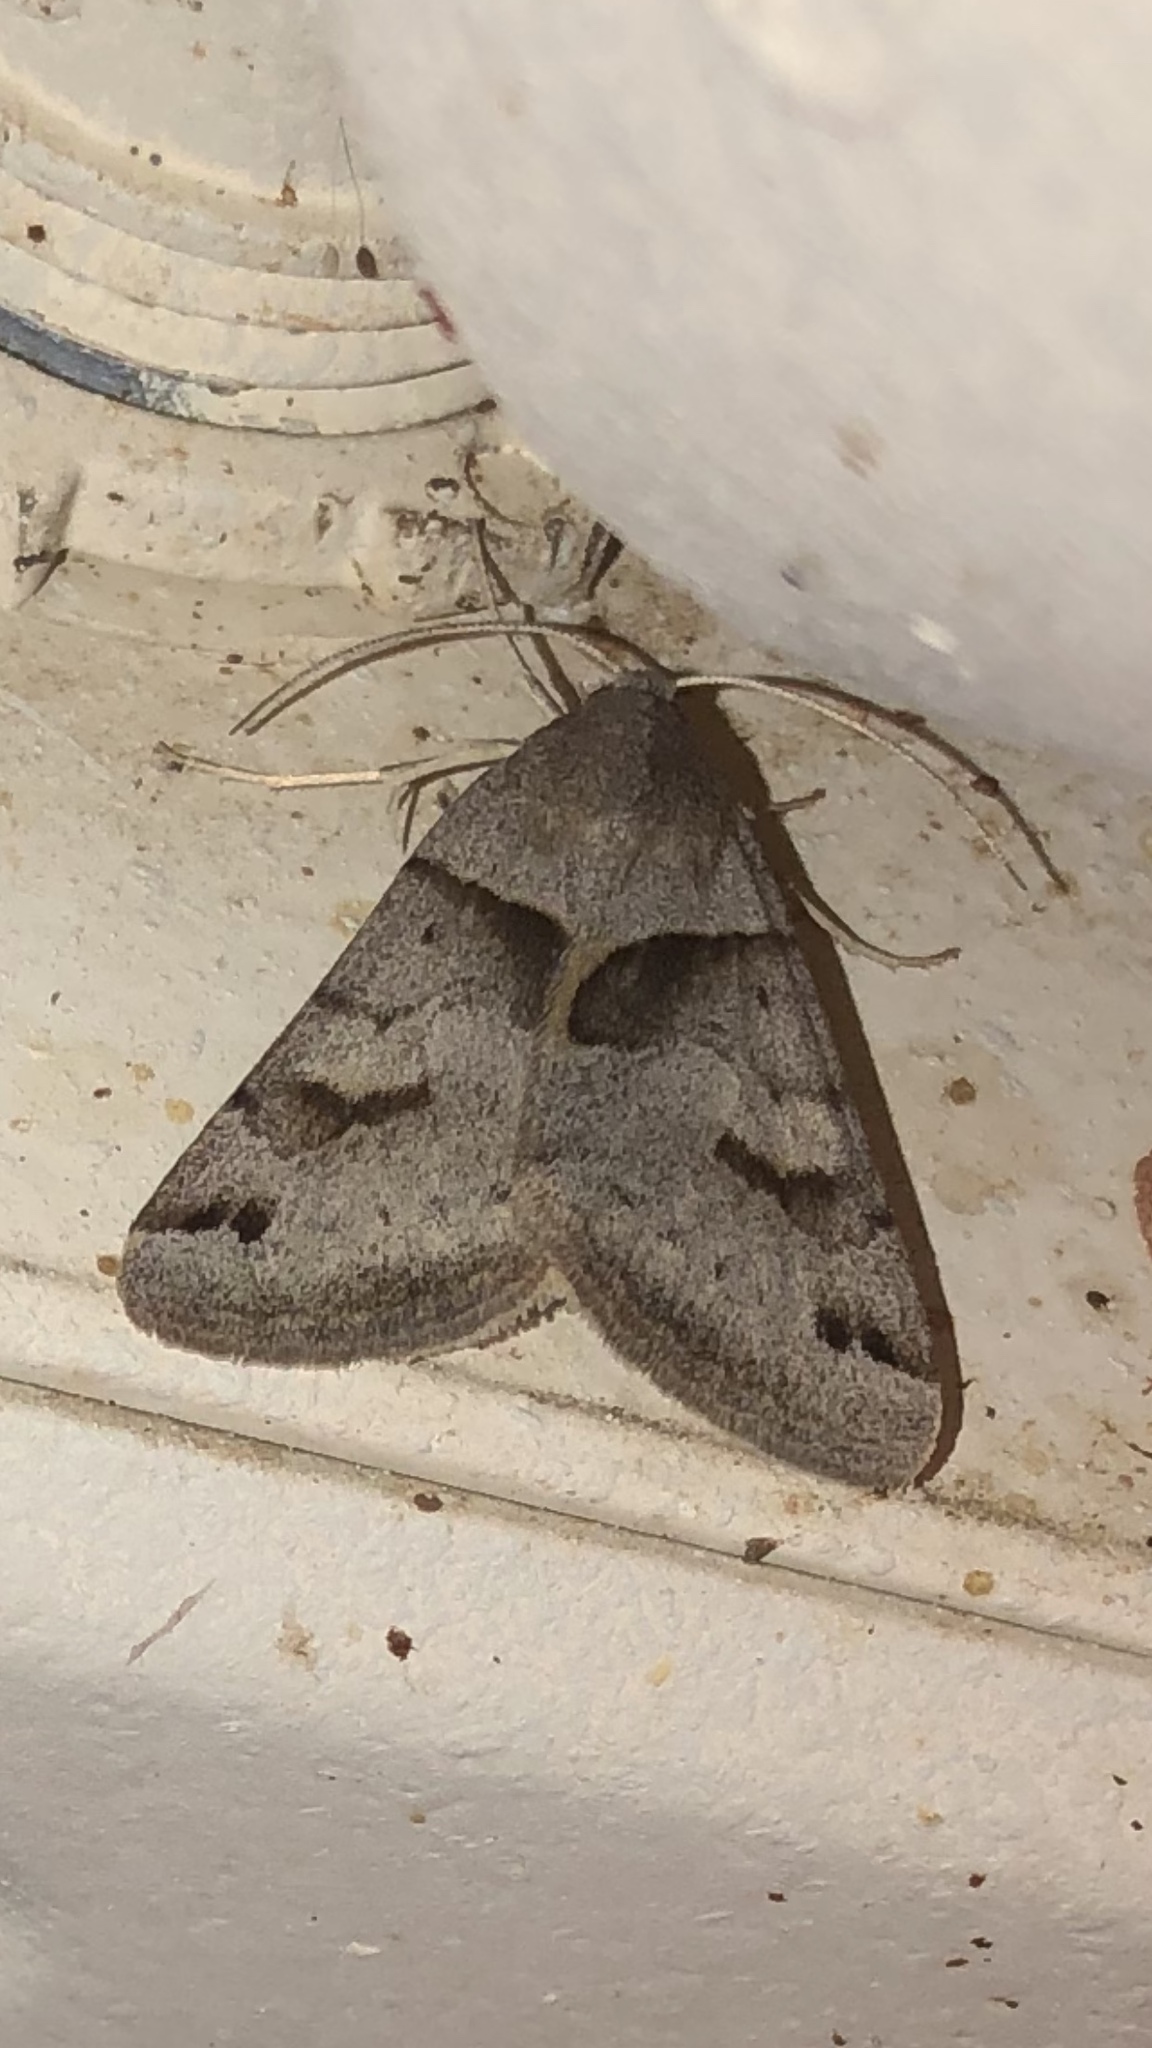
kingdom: Animalia
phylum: Arthropoda
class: Insecta
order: Lepidoptera
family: Erebidae
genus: Caenurgina
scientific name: Caenurgina erechtea
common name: Forage looper moth
